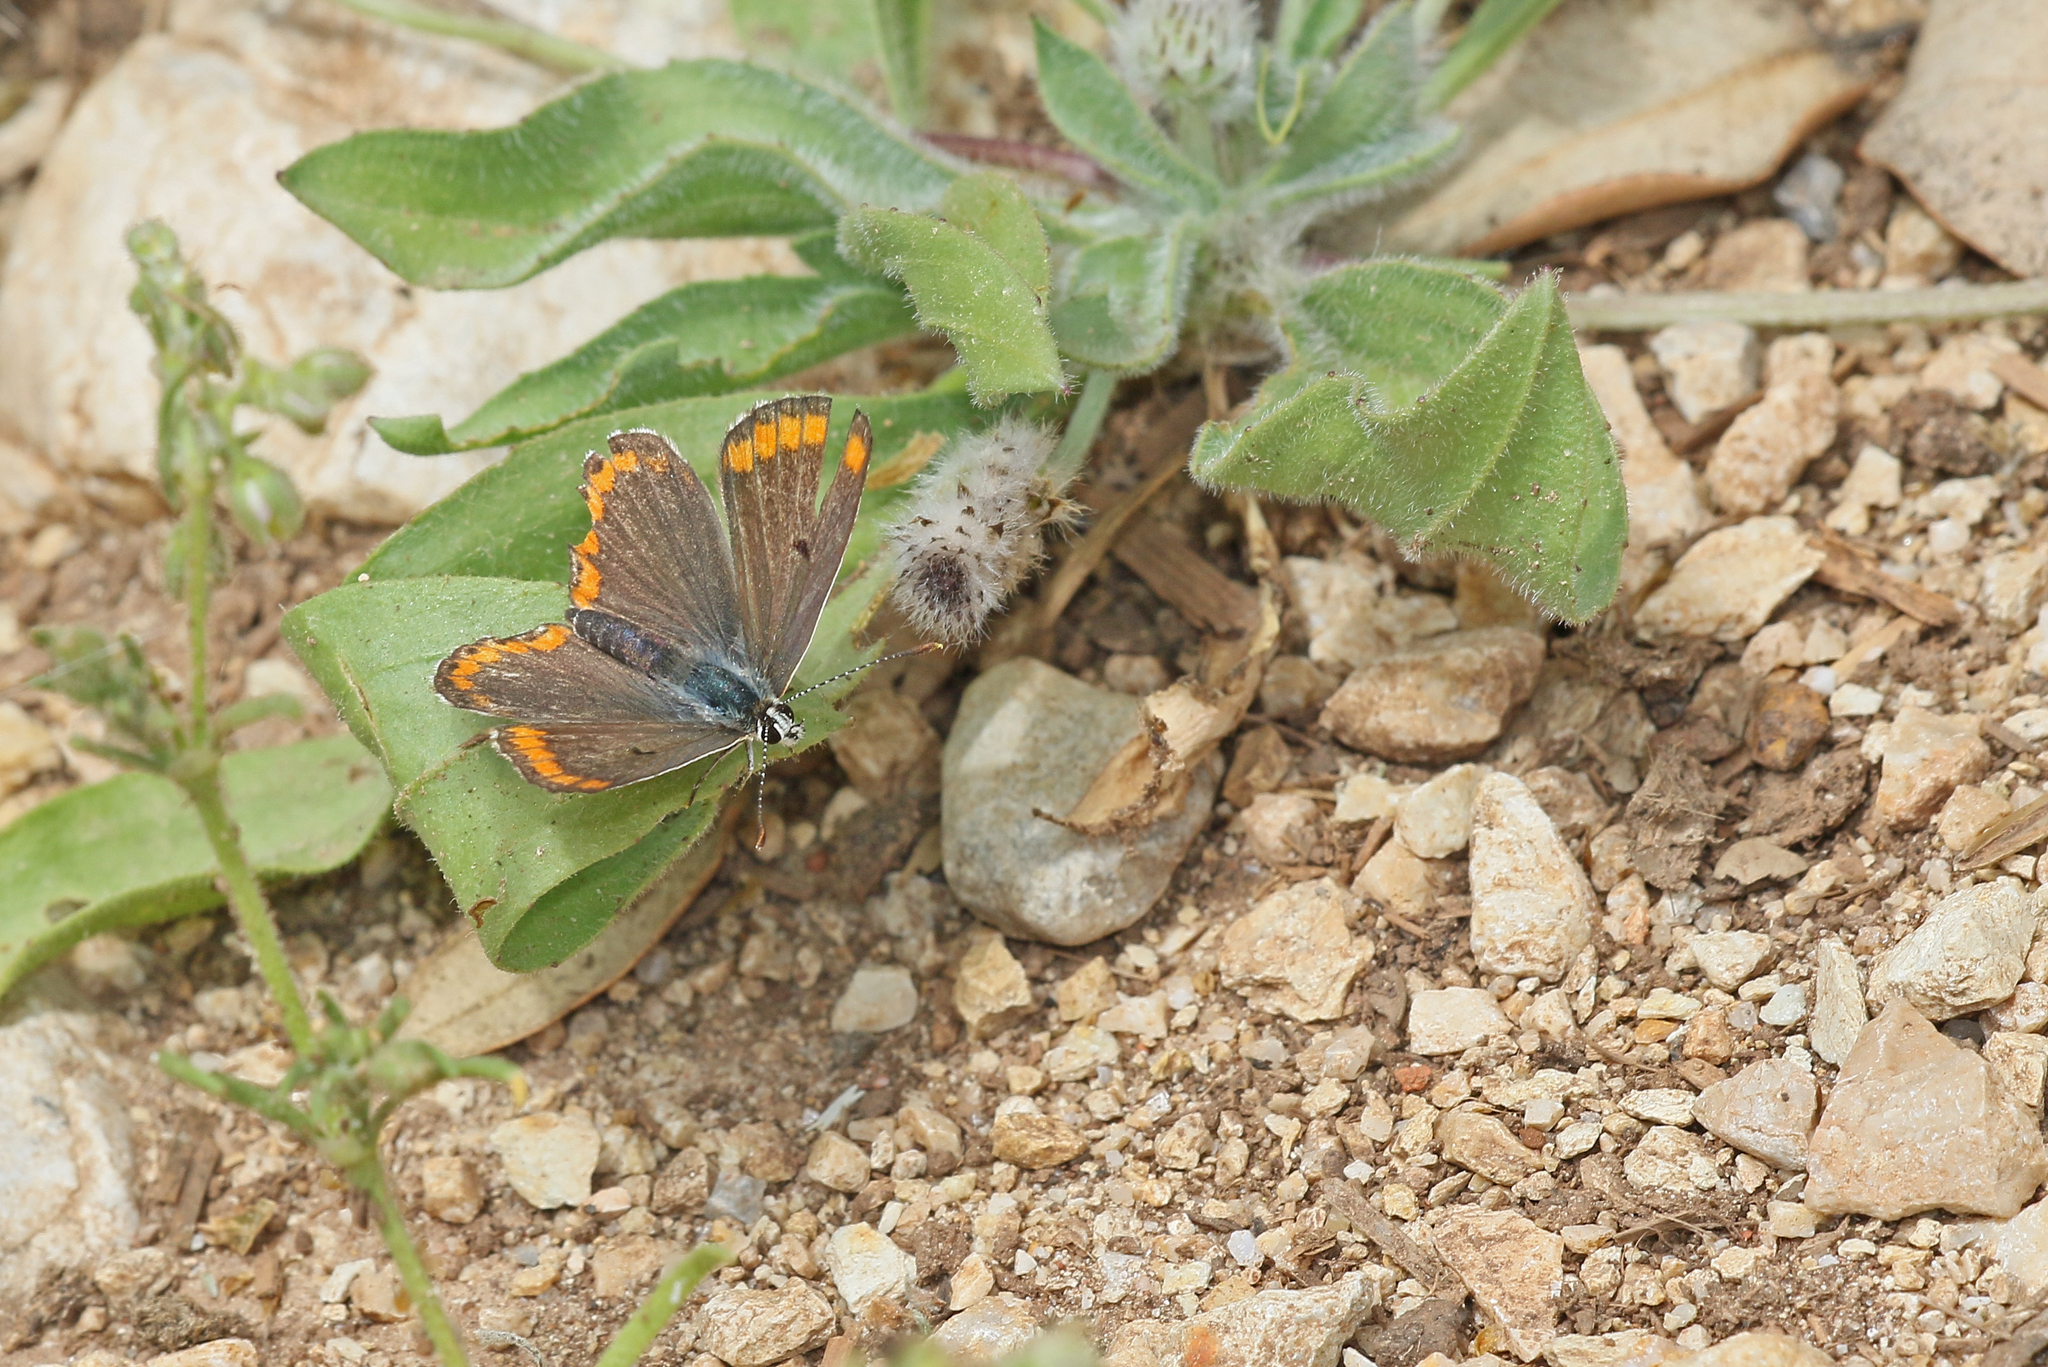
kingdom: Animalia
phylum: Arthropoda
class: Insecta
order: Lepidoptera
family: Lycaenidae
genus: Aricia
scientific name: Aricia cramera
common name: Eschscholtz´s brown  argus
